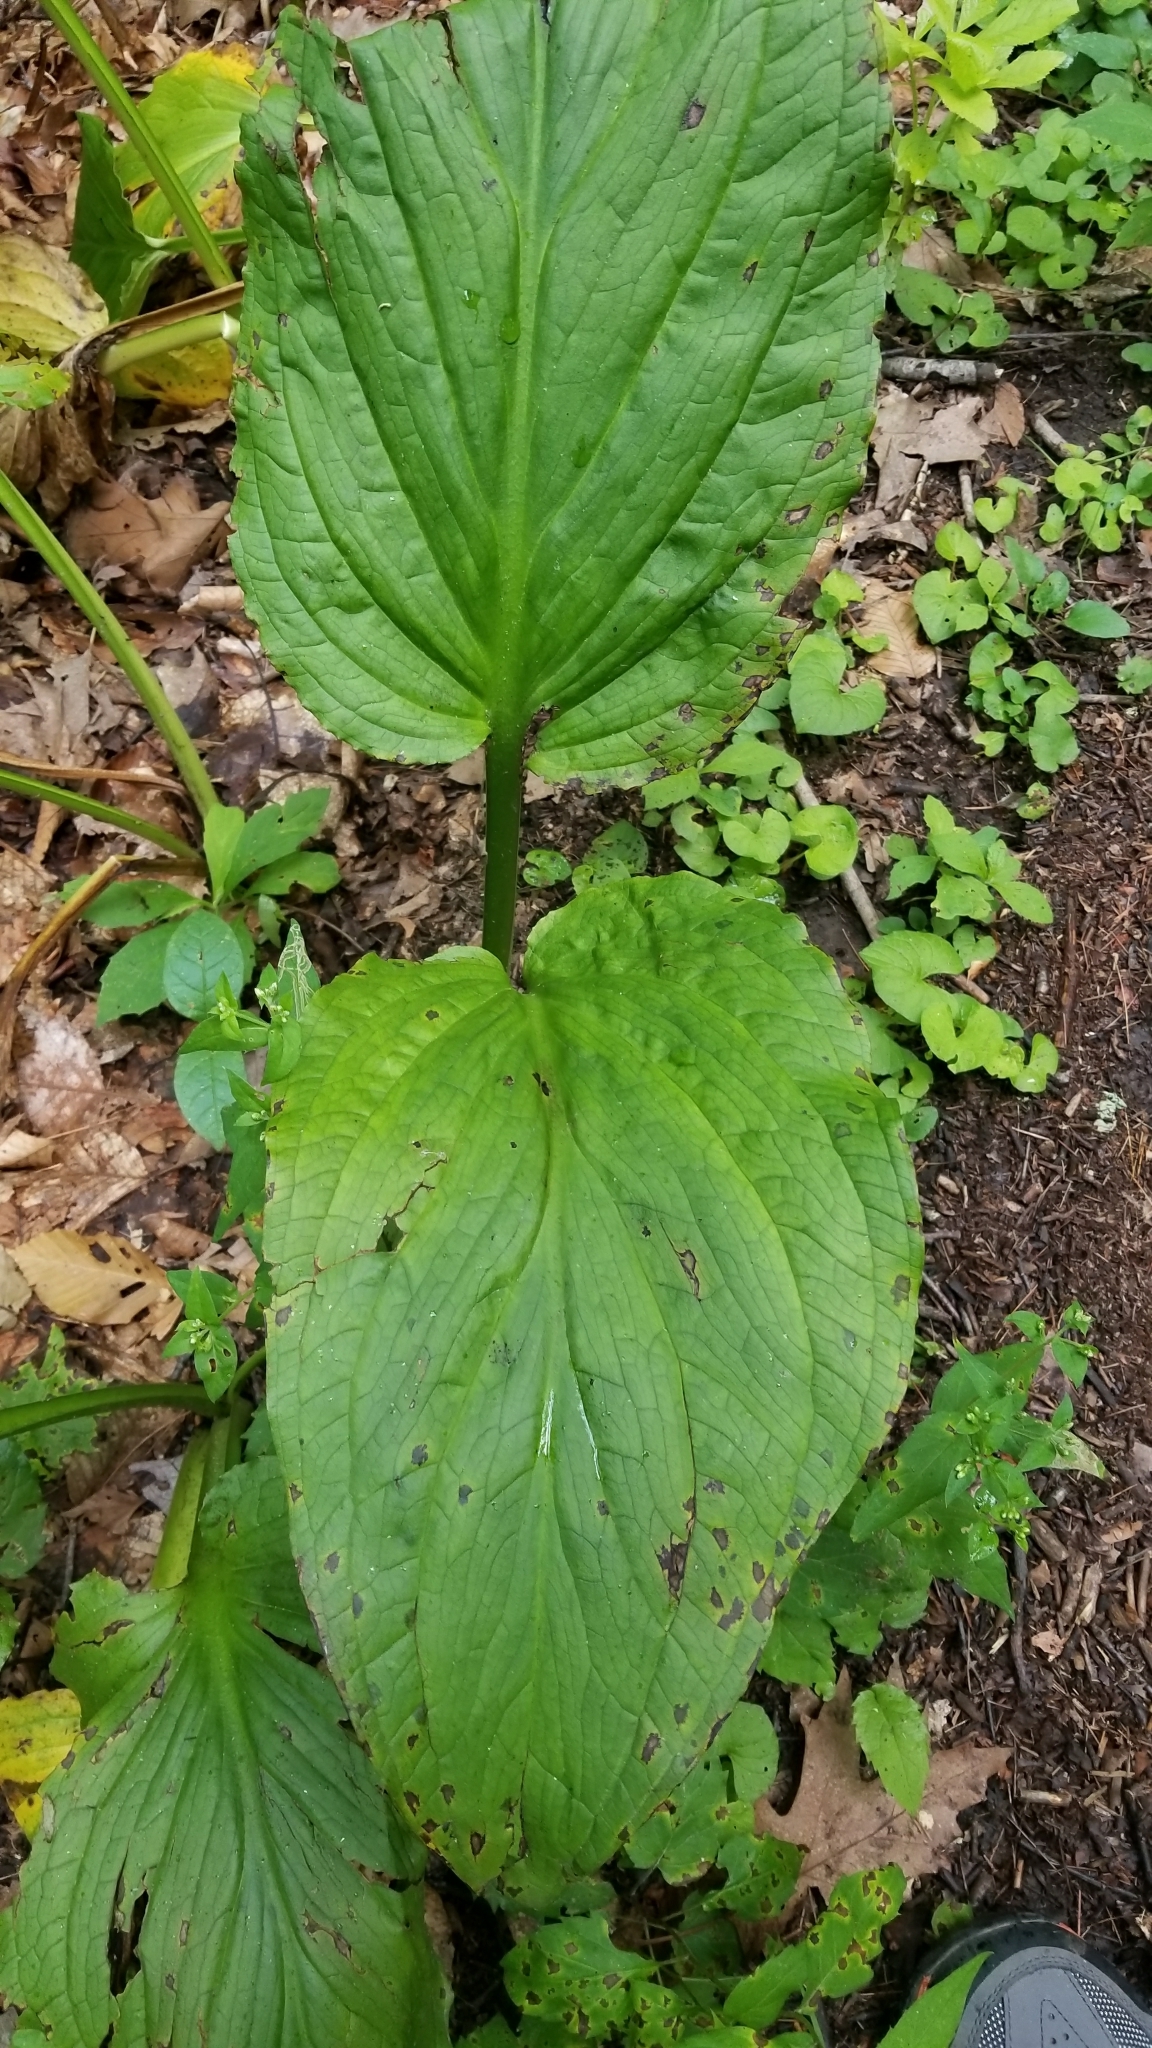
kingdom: Plantae
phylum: Tracheophyta
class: Liliopsida
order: Alismatales
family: Araceae
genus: Symplocarpus
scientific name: Symplocarpus foetidus
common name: Eastern skunk cabbage
